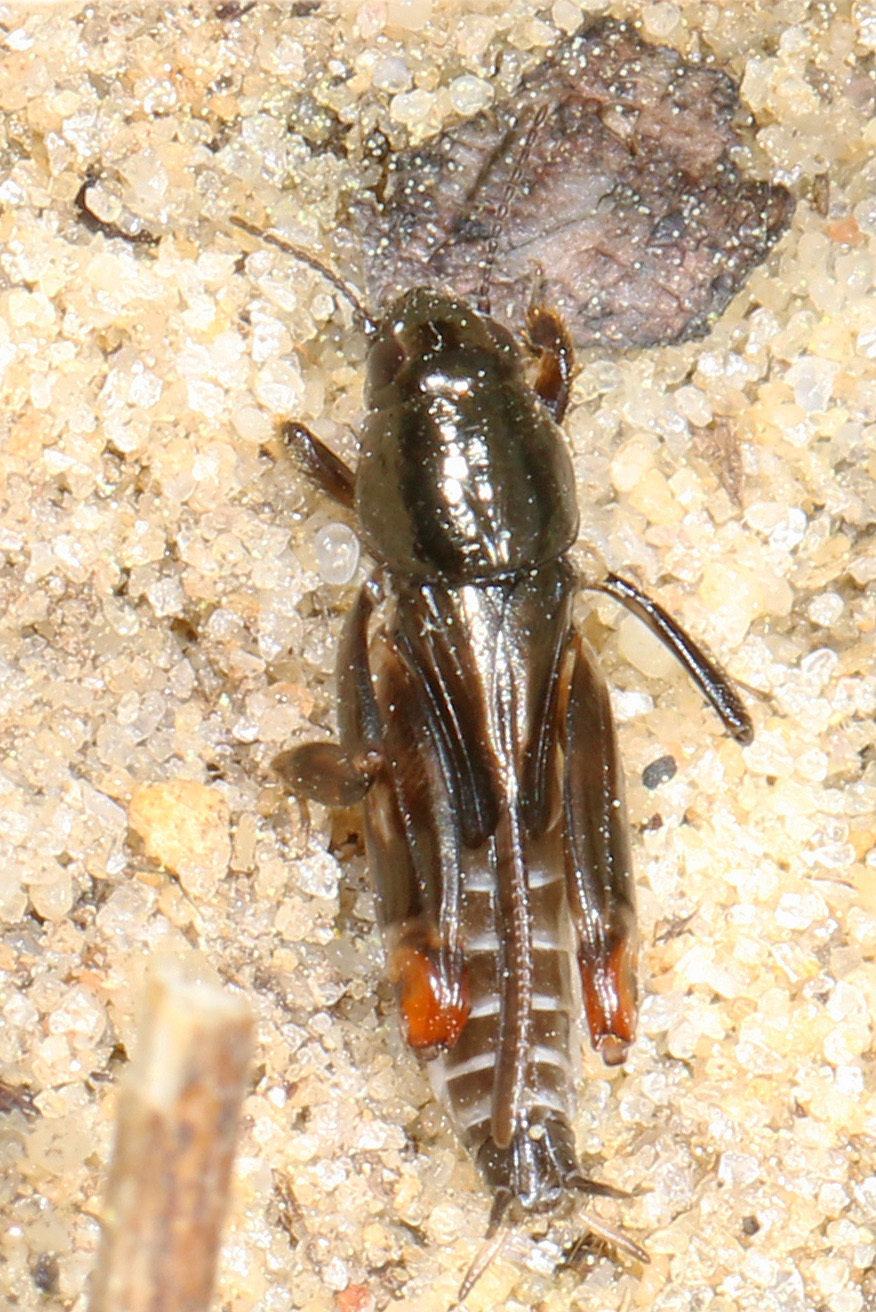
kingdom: Animalia
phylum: Arthropoda
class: Insecta
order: Orthoptera
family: Tridactylidae
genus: Neotridactylus
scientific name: Neotridactylus apicialis
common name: Larger pygmy locust
